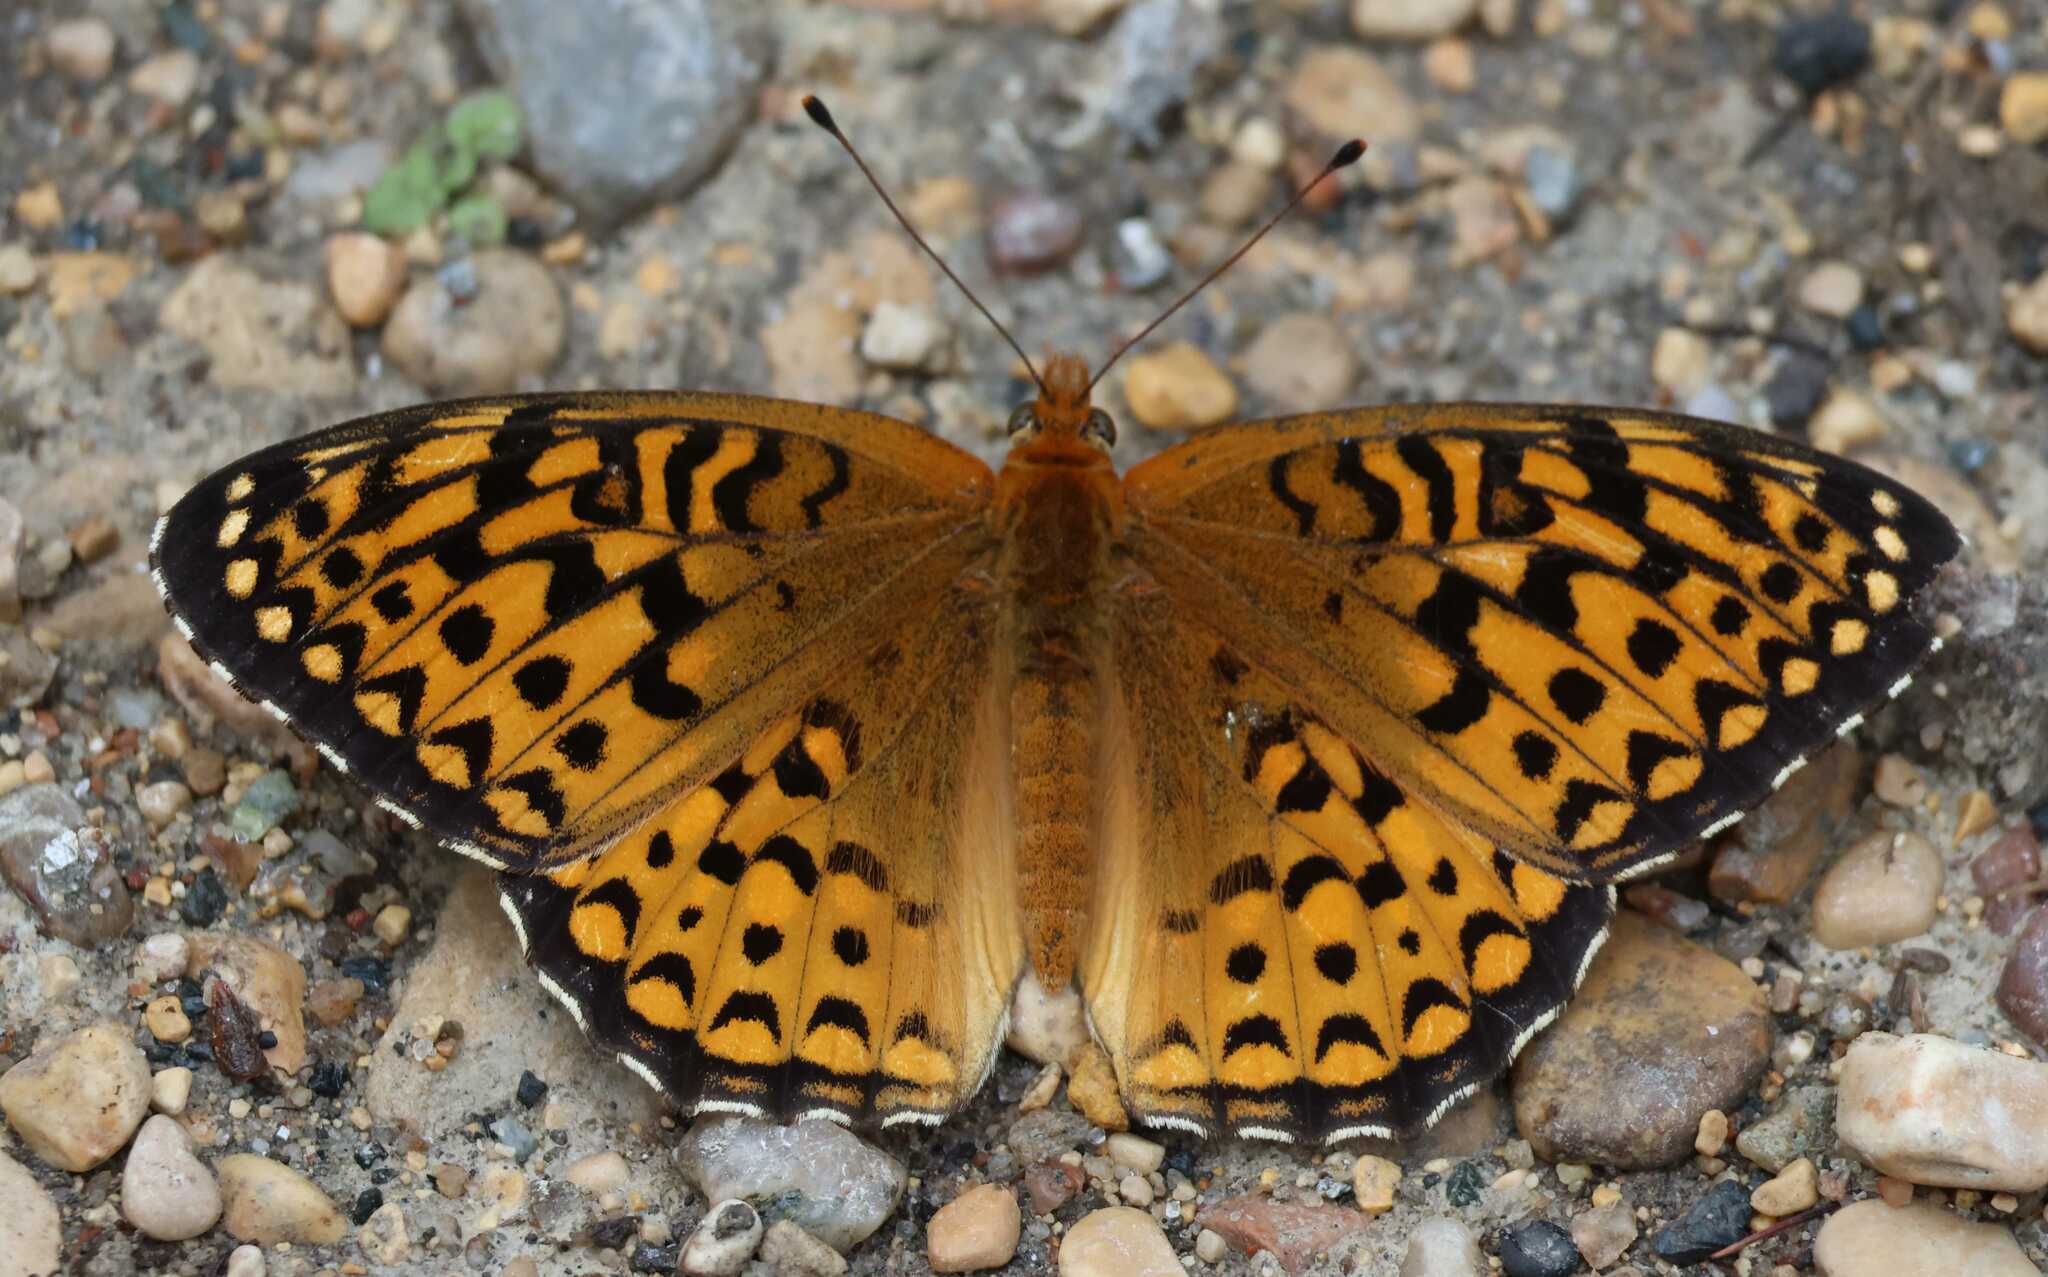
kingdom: Animalia
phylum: Arthropoda
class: Insecta
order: Lepidoptera
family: Nymphalidae
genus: Speyeria
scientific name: Speyeria atlantis
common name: Atlantis fritillary
